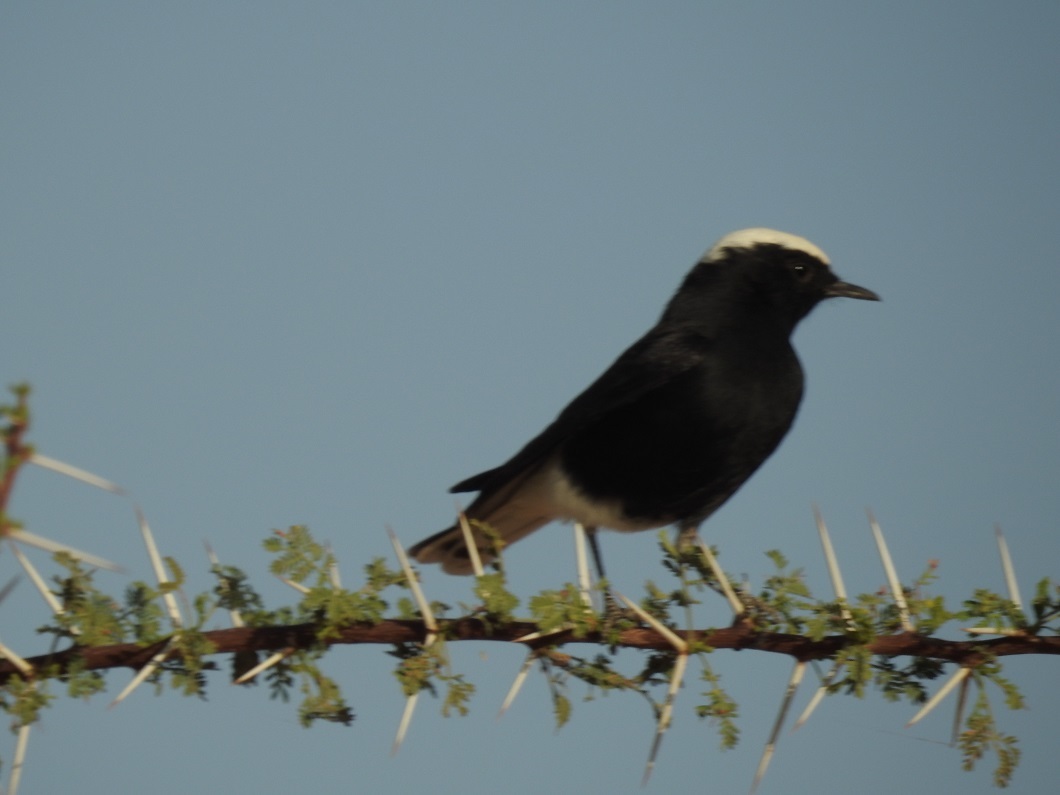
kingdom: Animalia
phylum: Chordata
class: Aves
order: Passeriformes
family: Muscicapidae
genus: Oenanthe
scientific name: Oenanthe leucopyga
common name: White-crowned wheatear
